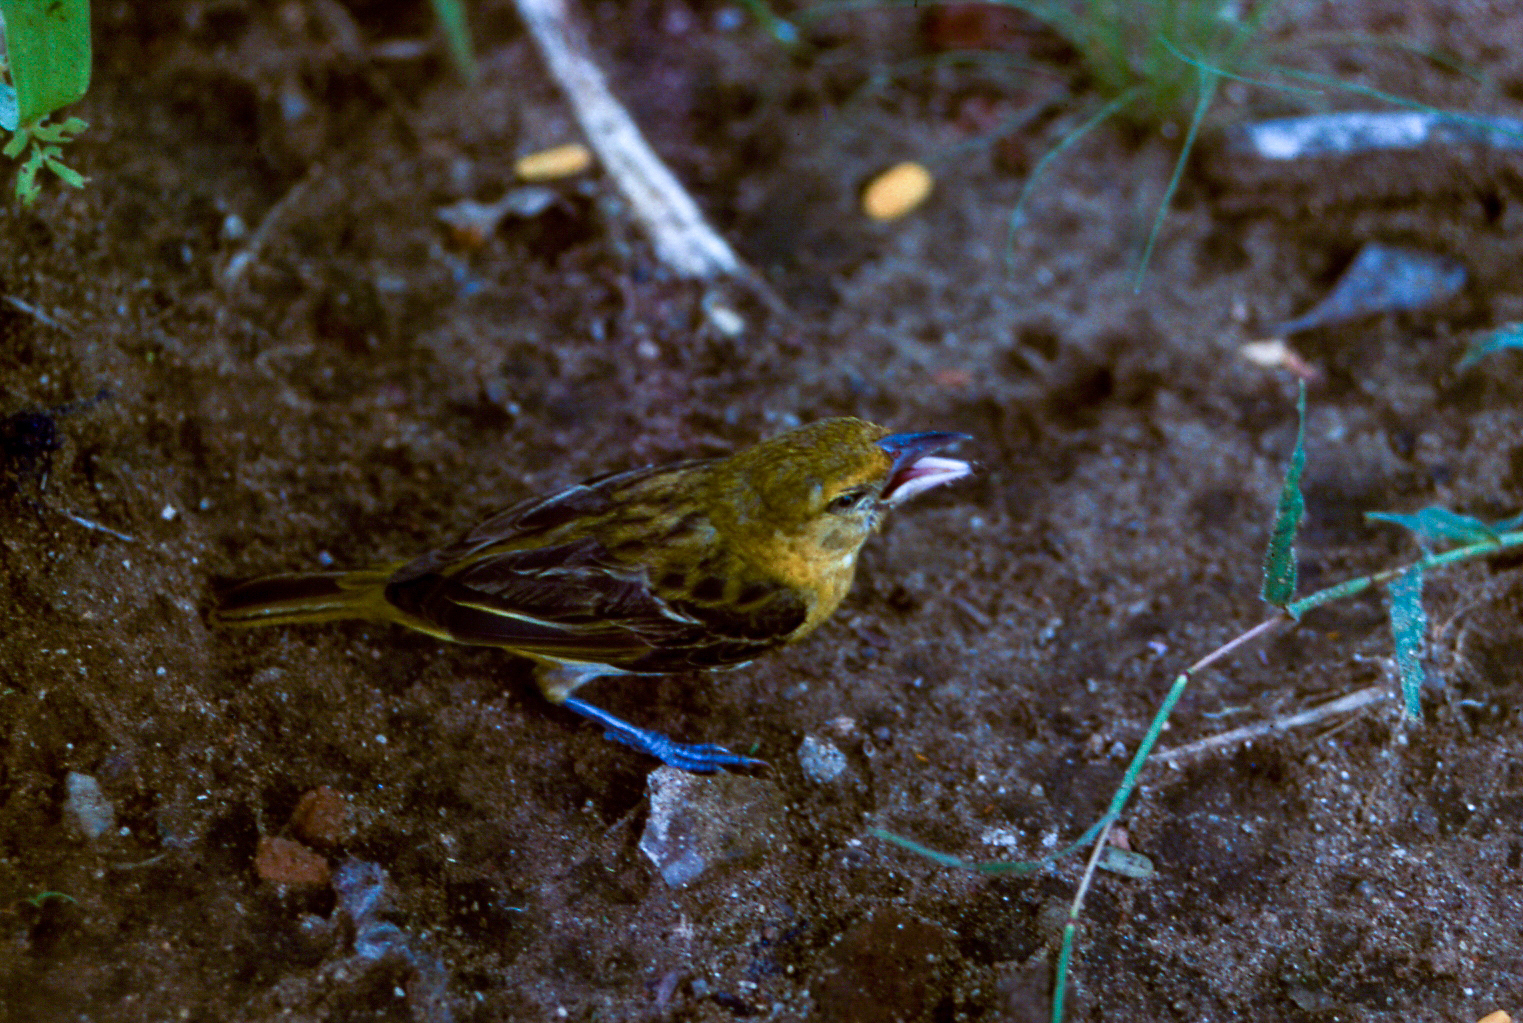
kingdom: Animalia
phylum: Chordata
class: Aves
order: Passeriformes
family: Ploceidae
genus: Ploceus
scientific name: Ploceus xanthopterus
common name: Southern brown-throated weaver
